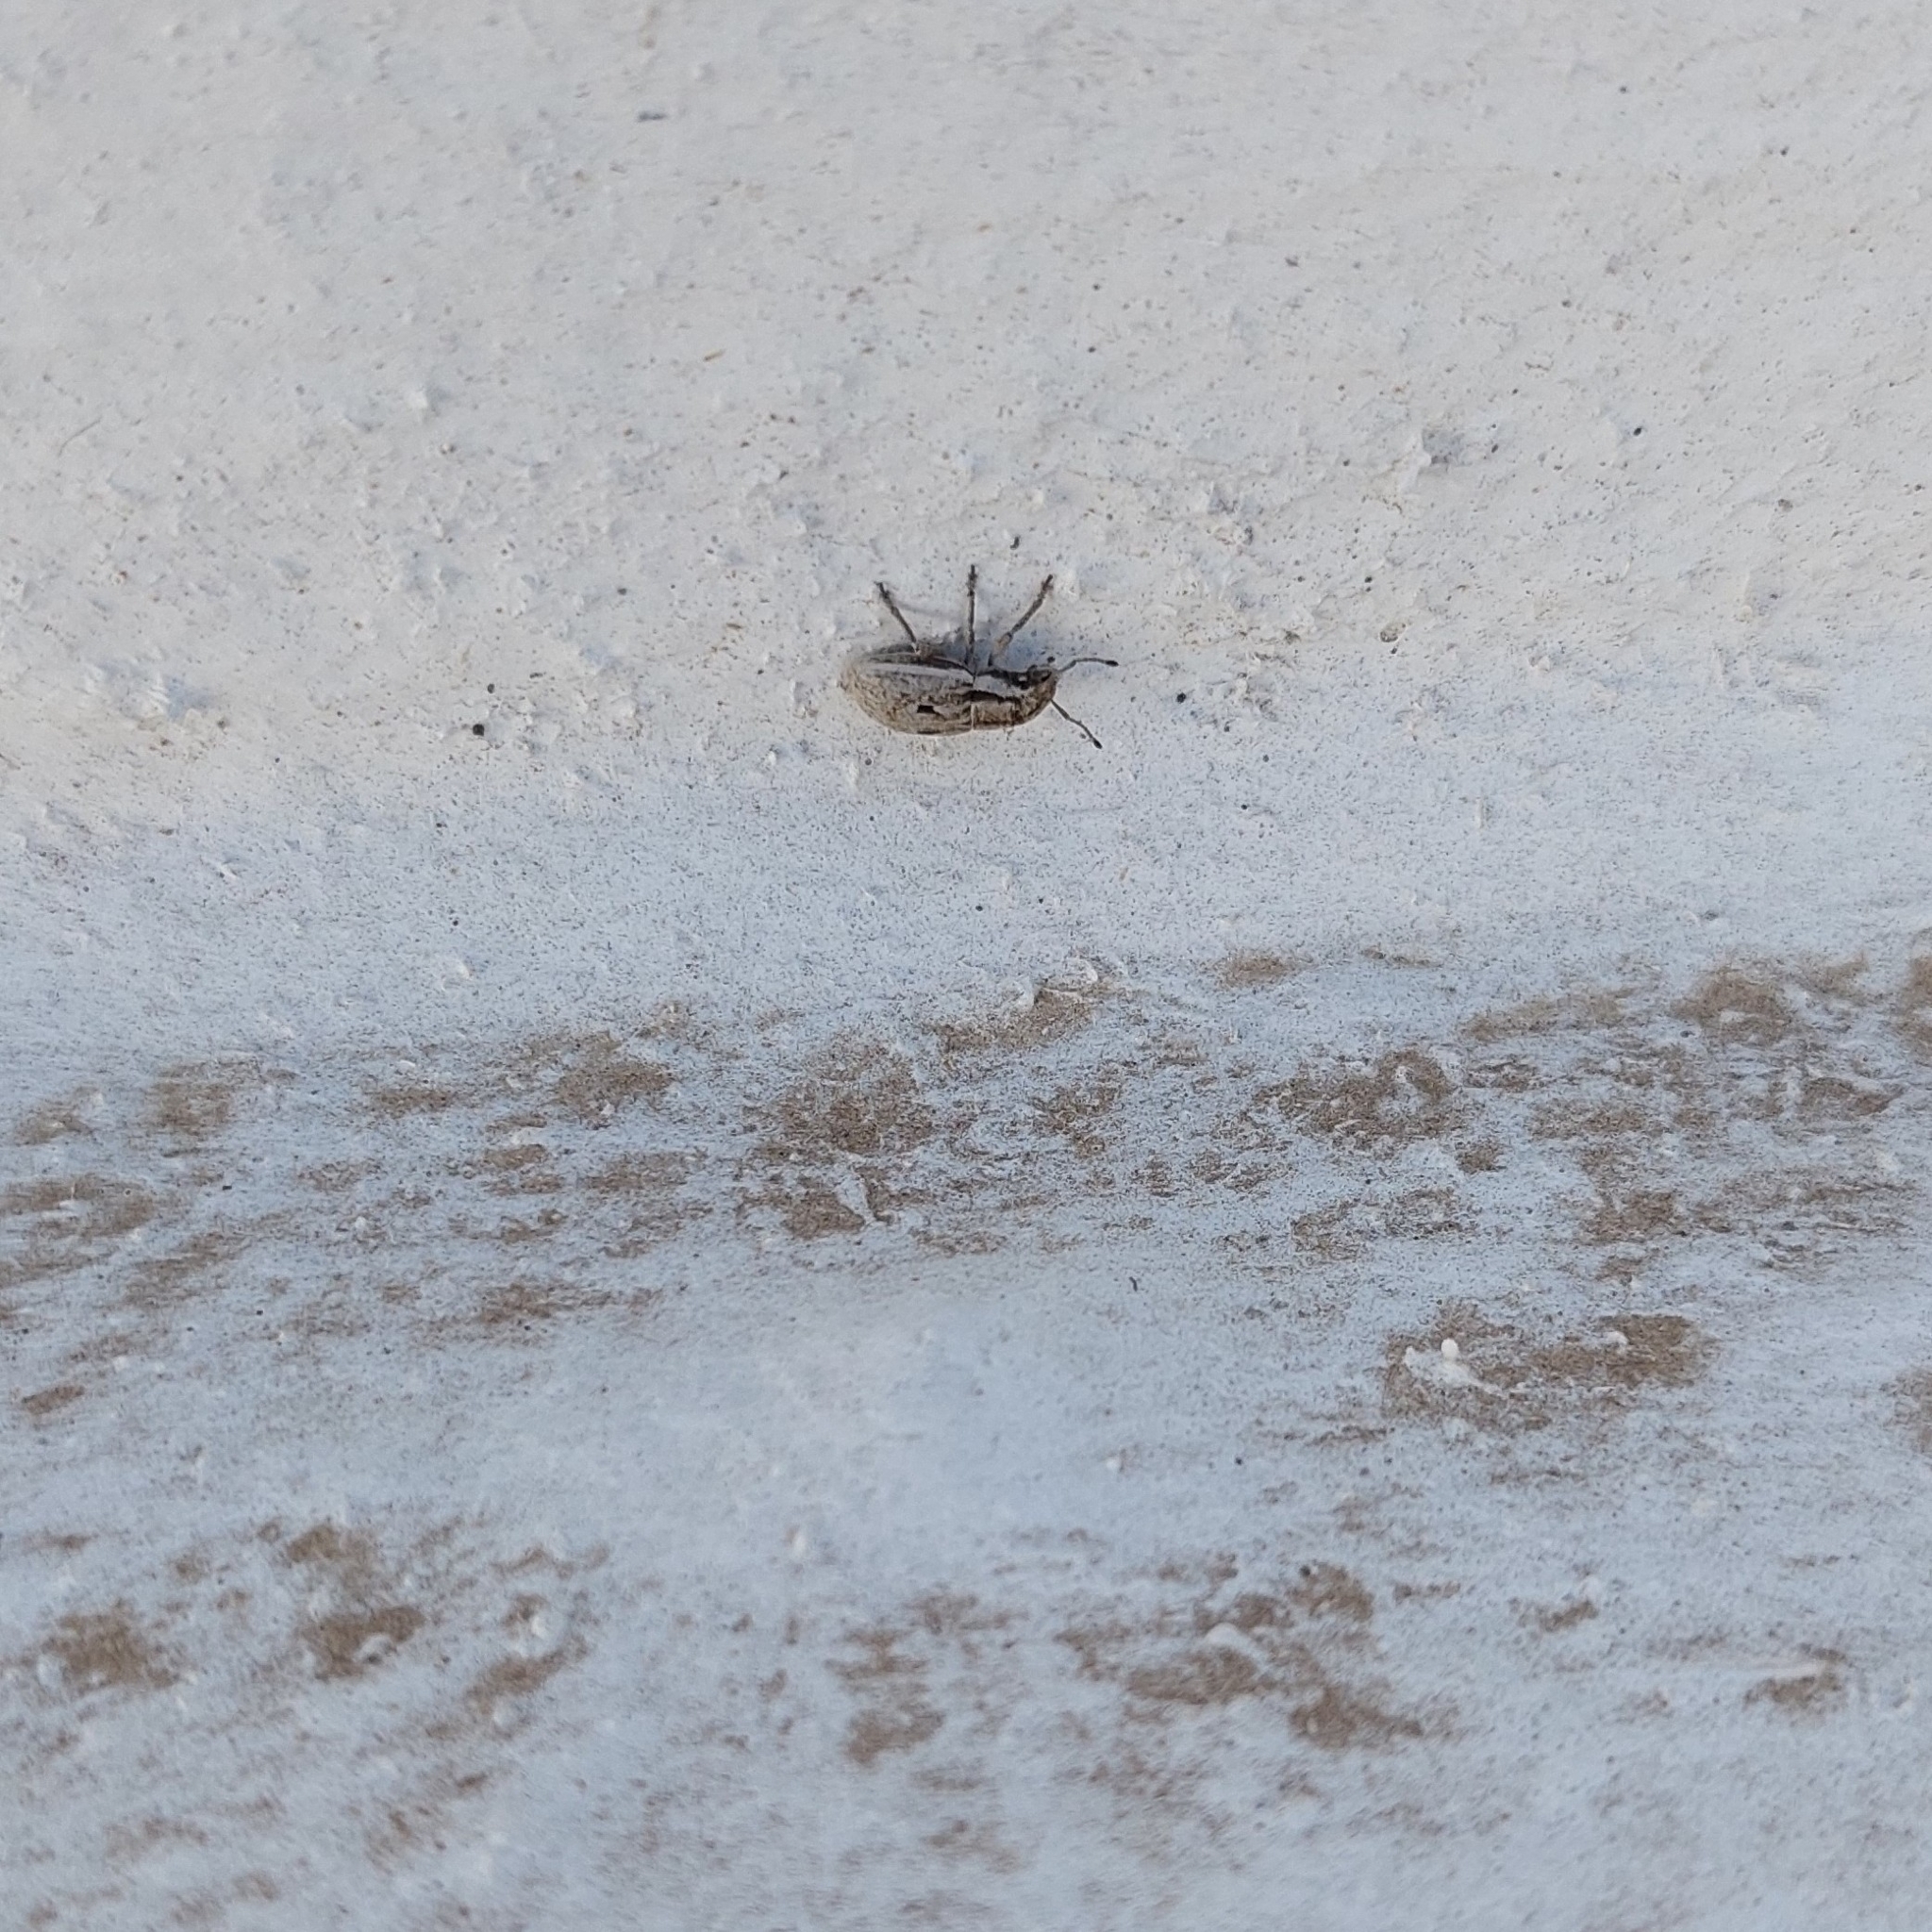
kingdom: Animalia
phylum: Arthropoda
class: Insecta
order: Coleoptera
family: Curculionidae
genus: Eurymetopus
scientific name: Eurymetopus fallax
